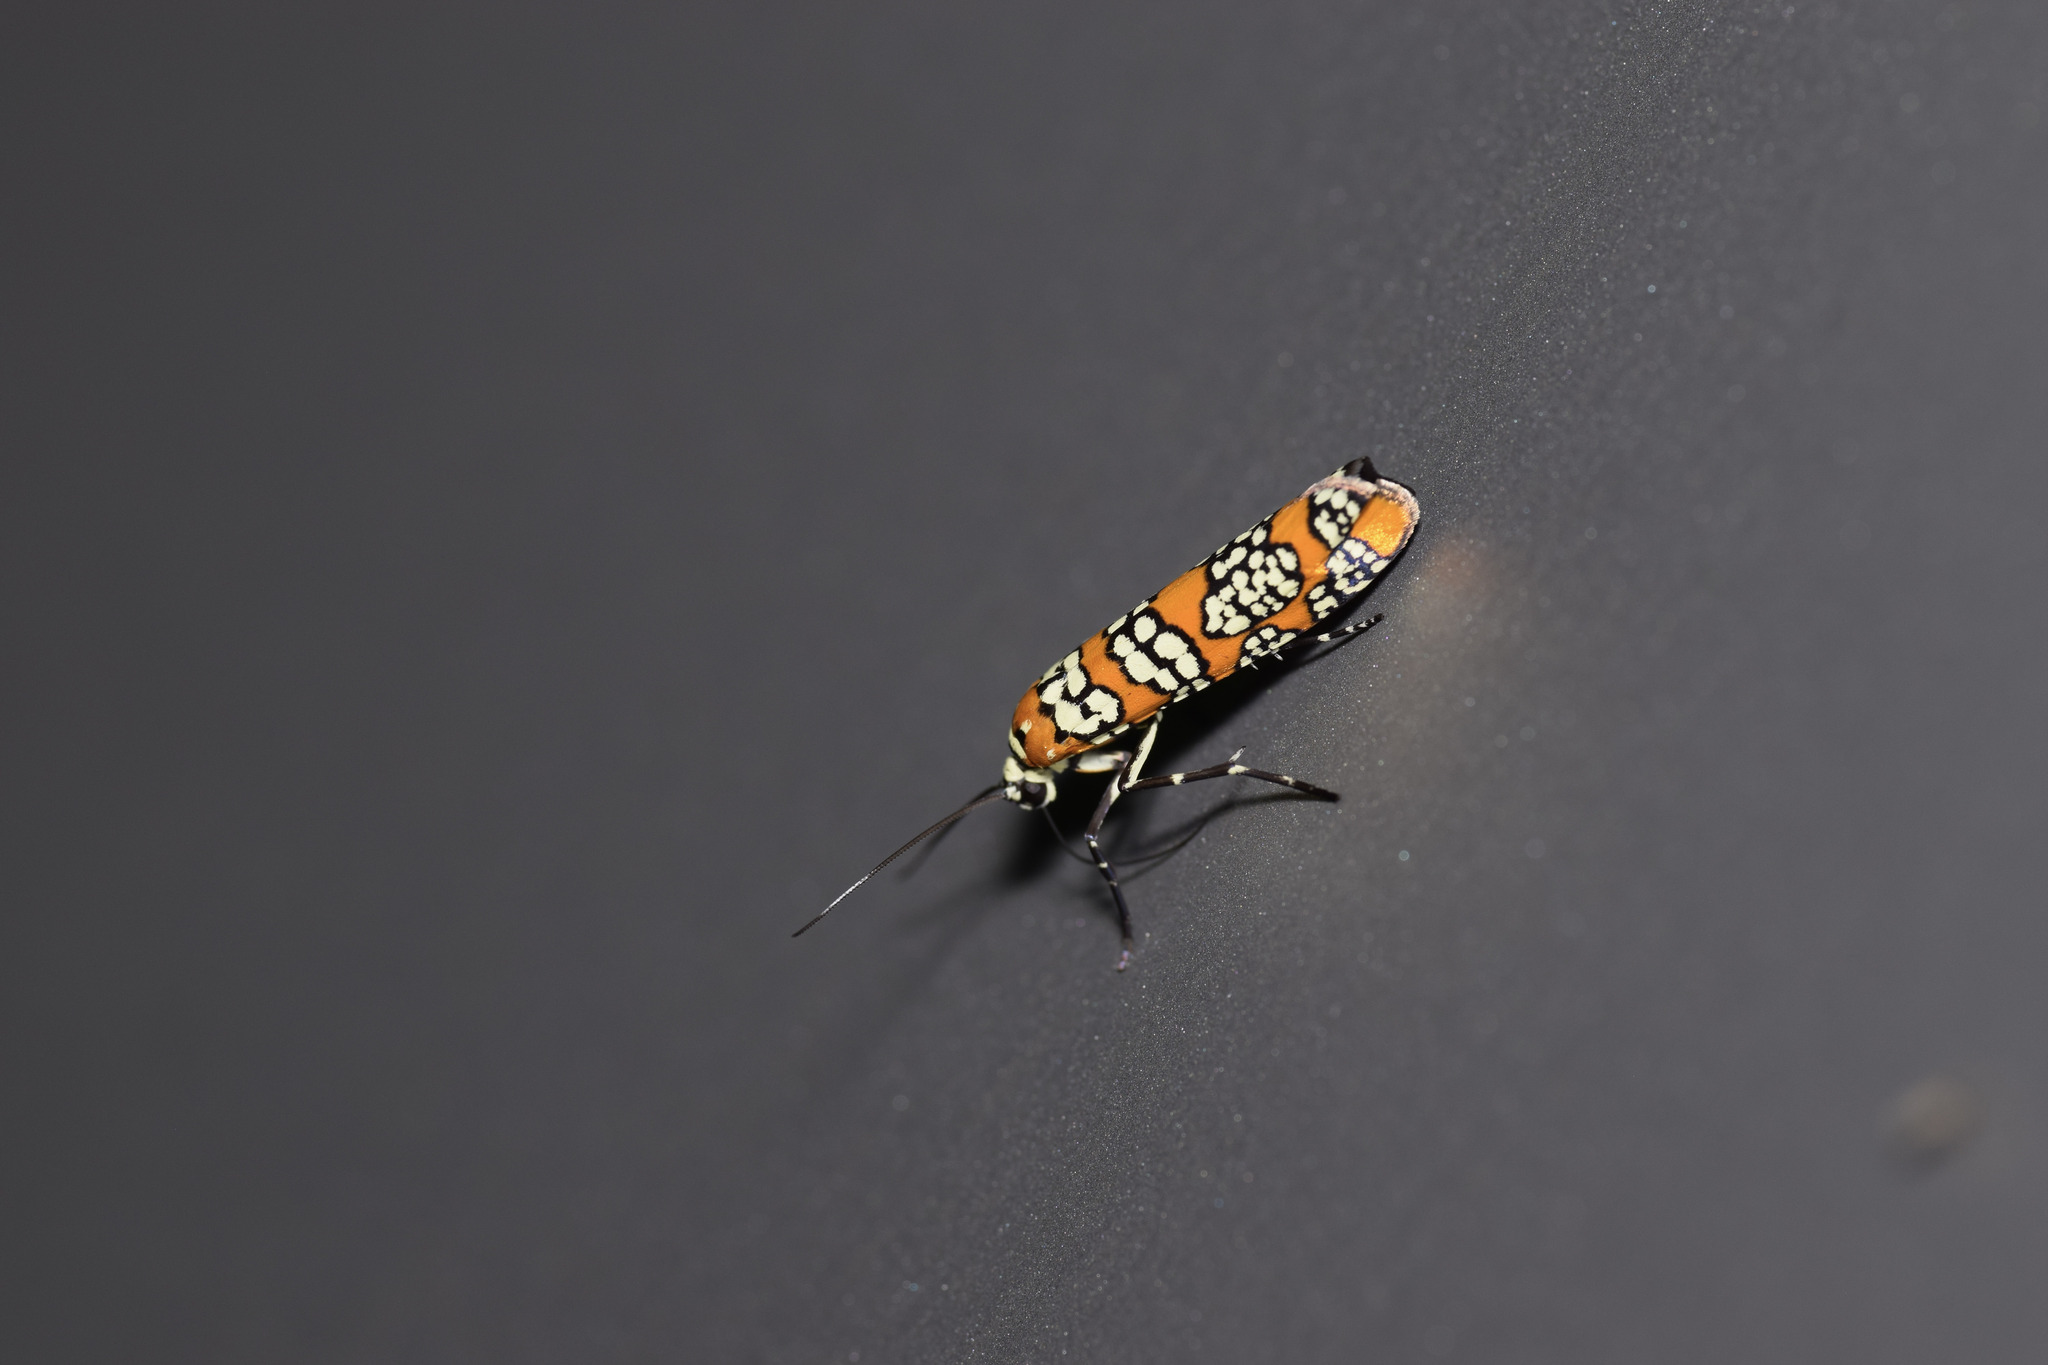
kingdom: Animalia
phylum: Arthropoda
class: Insecta
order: Lepidoptera
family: Attevidae
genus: Atteva
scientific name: Atteva punctella
